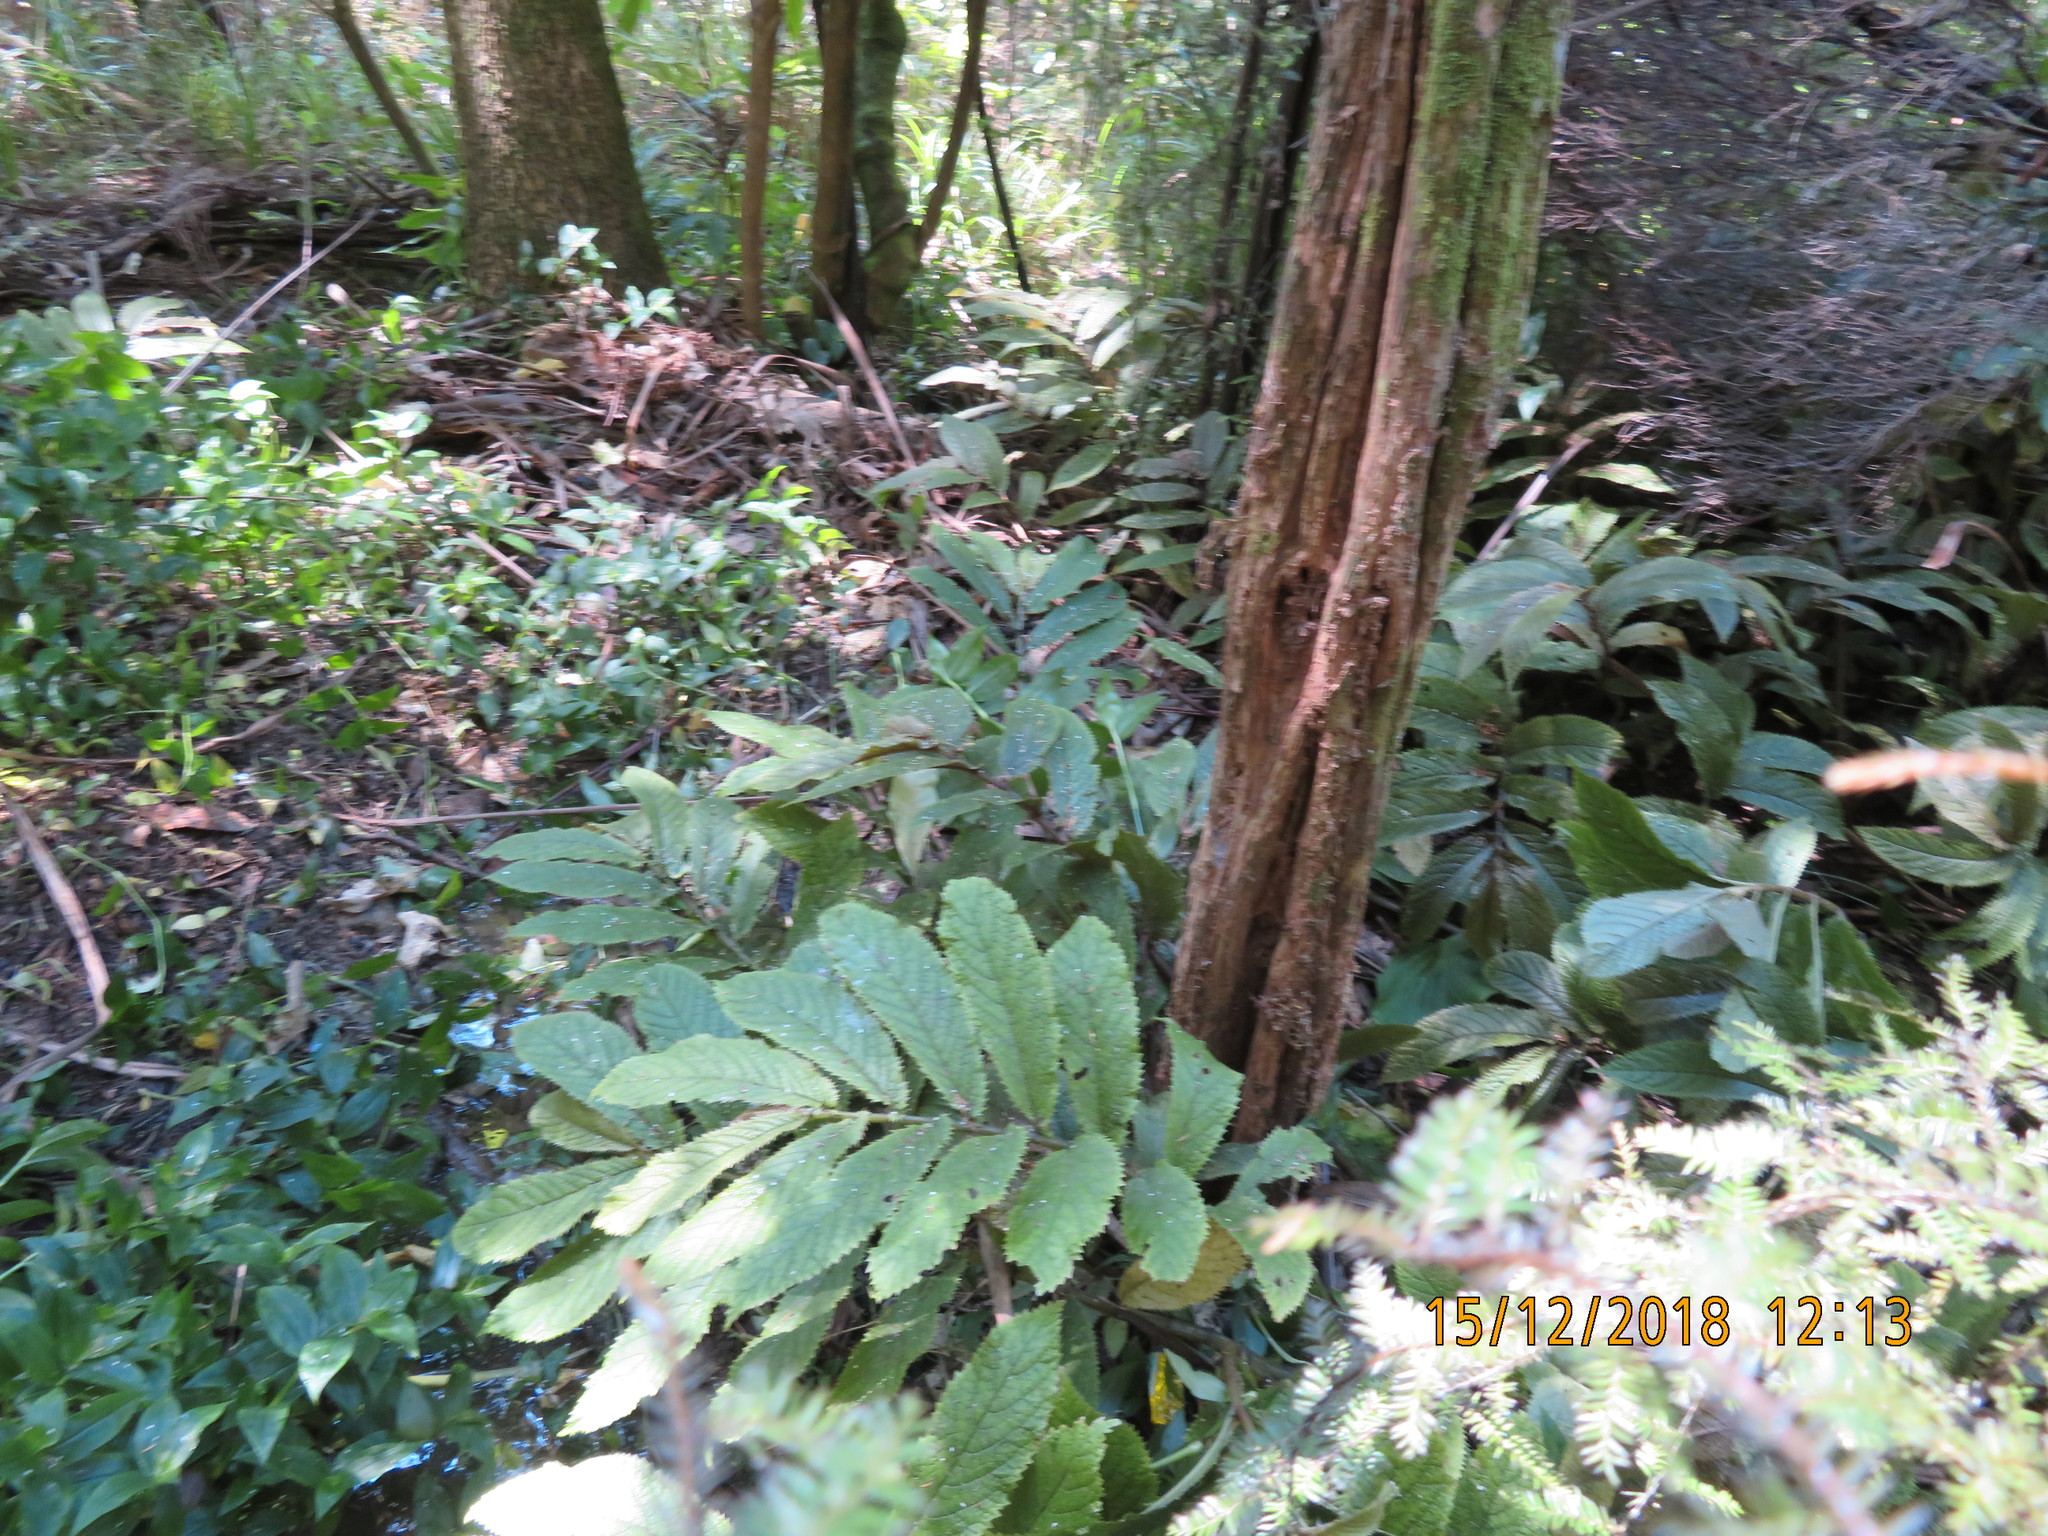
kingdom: Plantae
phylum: Tracheophyta
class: Magnoliopsida
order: Rosales
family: Urticaceae
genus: Elatostema
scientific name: Elatostema rugosum
